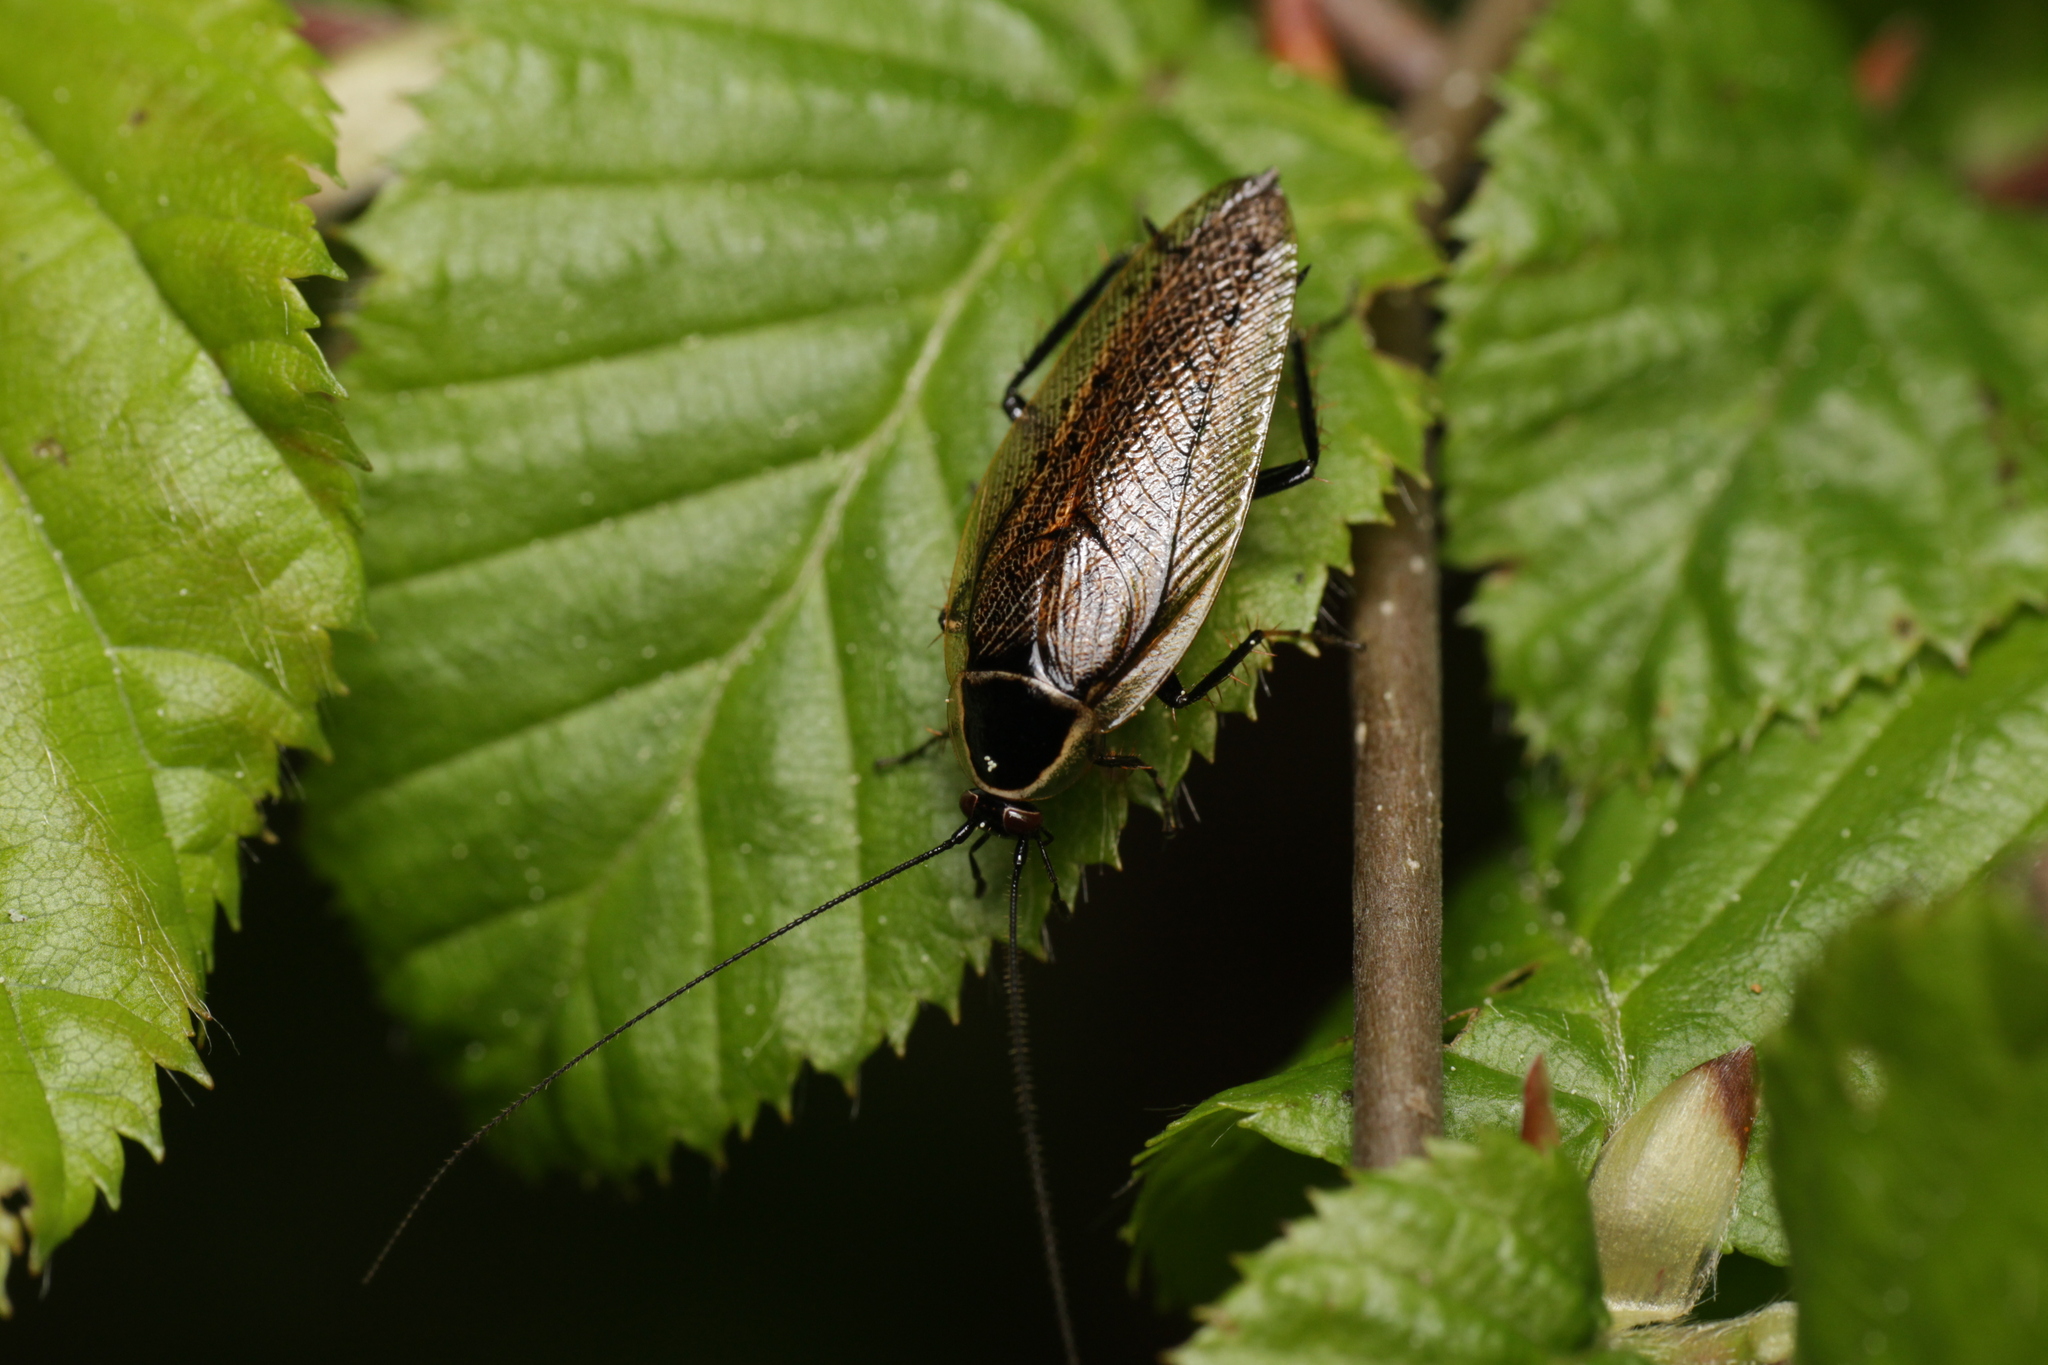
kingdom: Animalia
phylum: Arthropoda
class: Insecta
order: Blattodea
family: Ectobiidae
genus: Ectobius
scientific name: Ectobius sylvestris
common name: Forest cockroach
